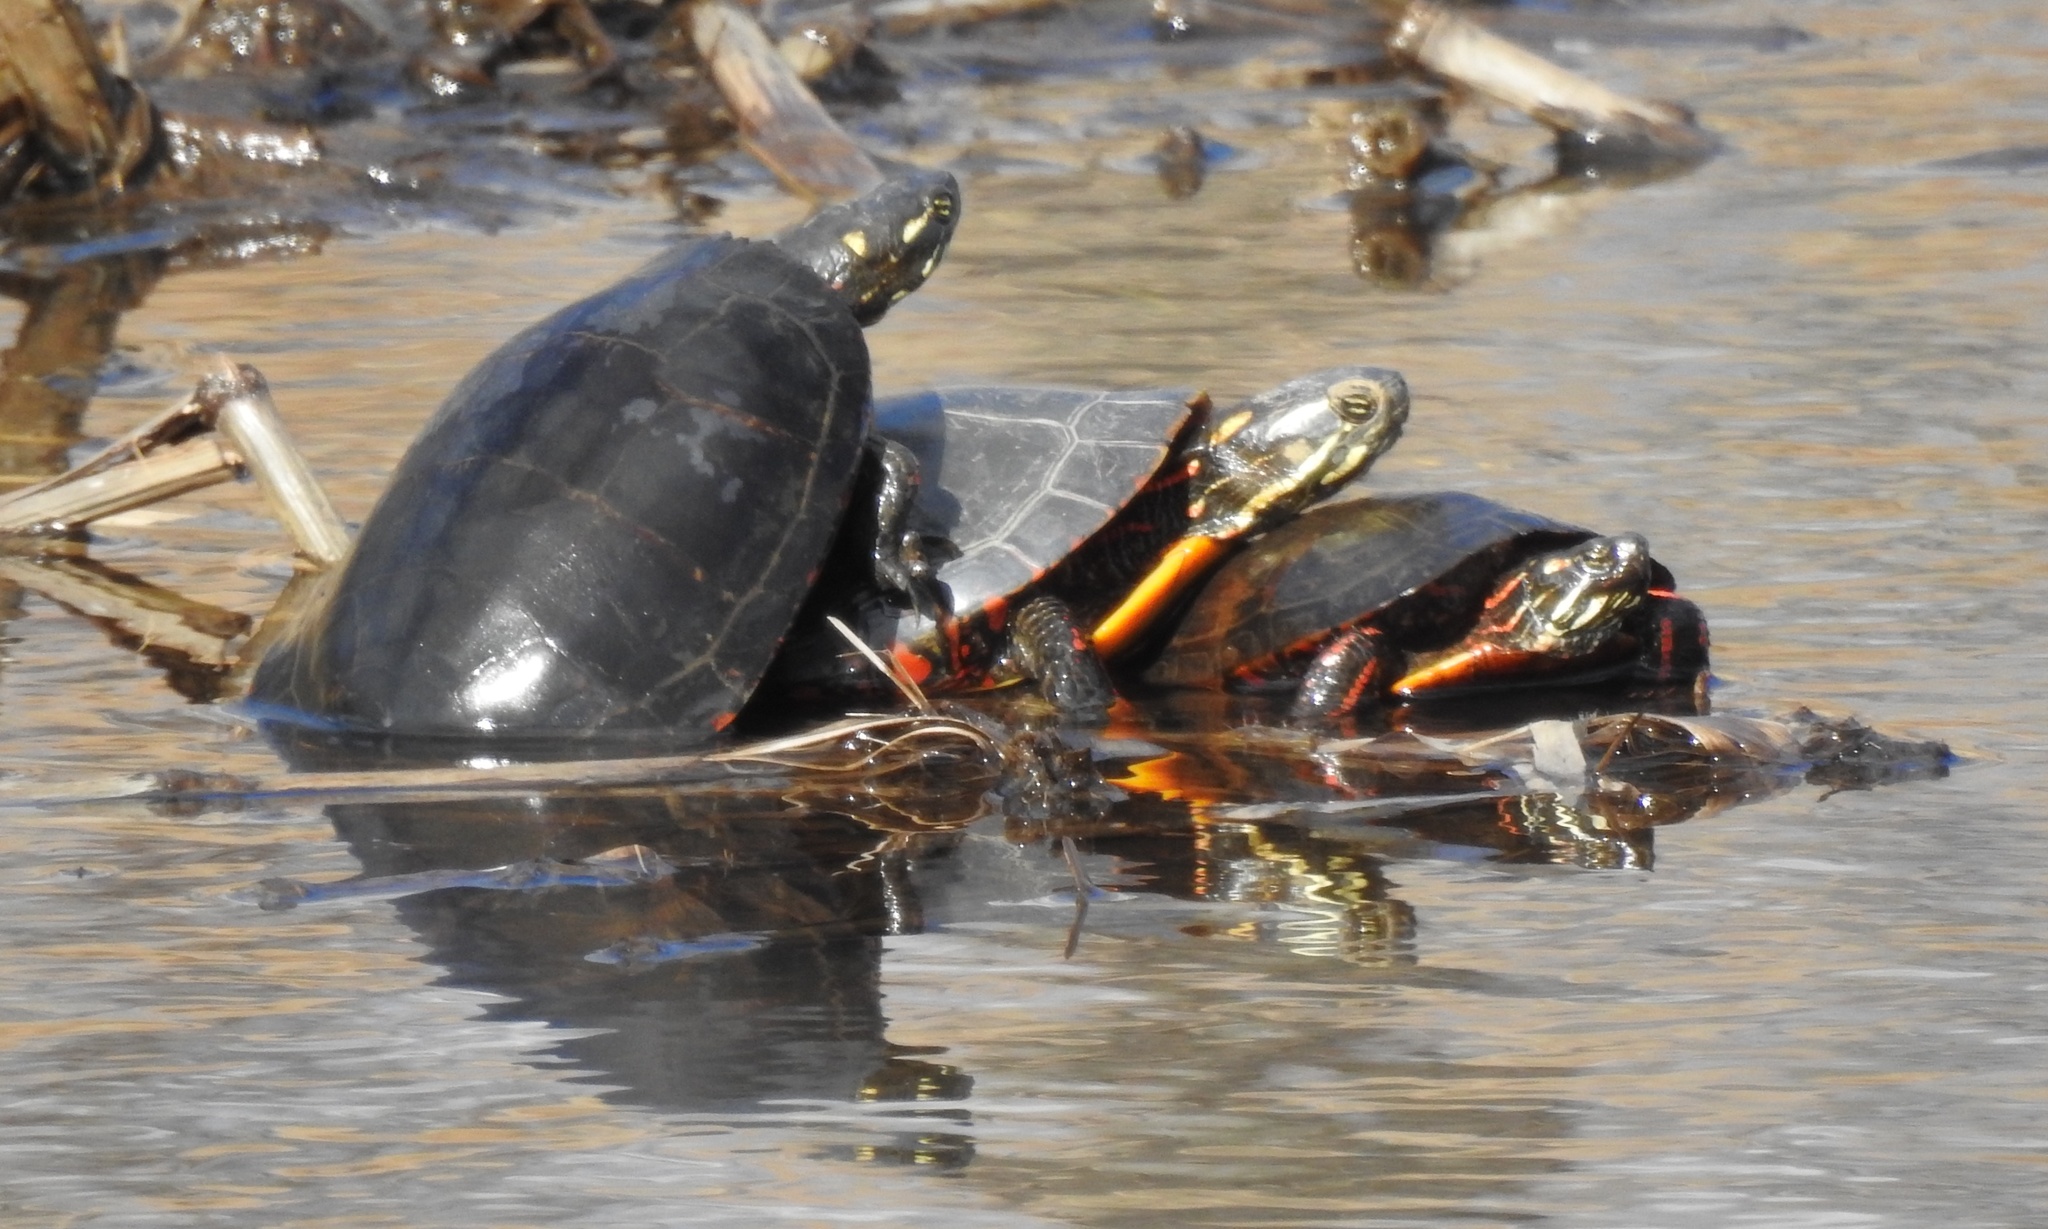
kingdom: Animalia
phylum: Chordata
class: Testudines
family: Emydidae
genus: Chrysemys
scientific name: Chrysemys picta
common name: Painted turtle
